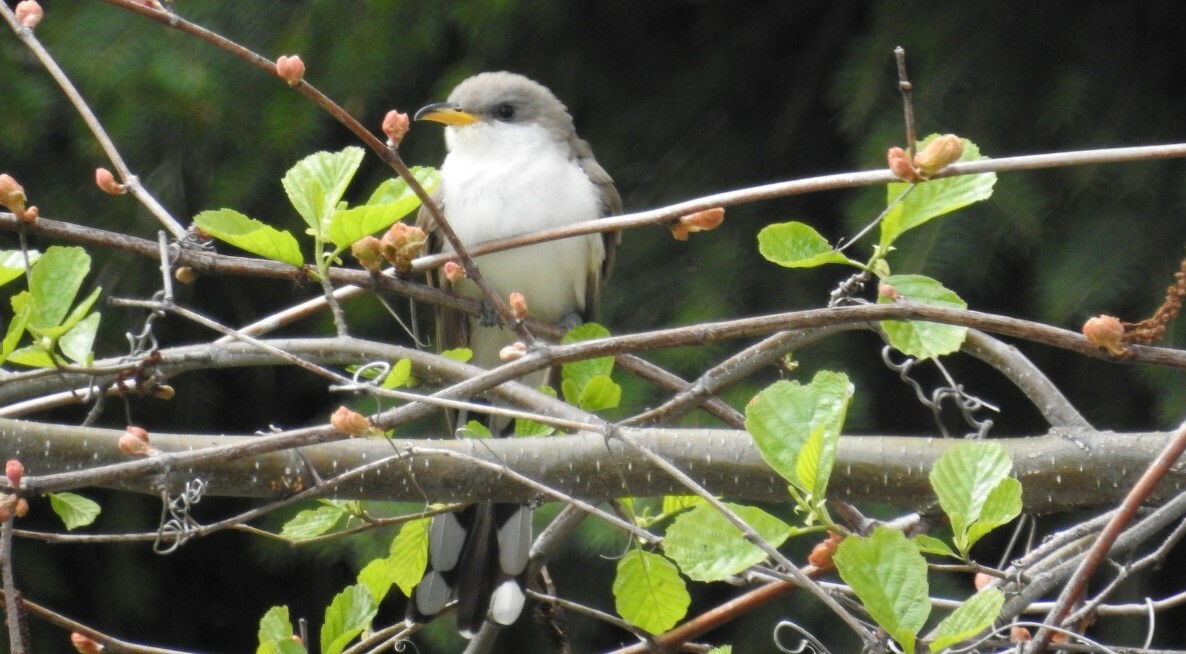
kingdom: Animalia
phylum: Chordata
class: Aves
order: Cuculiformes
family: Cuculidae
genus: Coccyzus
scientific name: Coccyzus americanus
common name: Yellow-billed cuckoo
